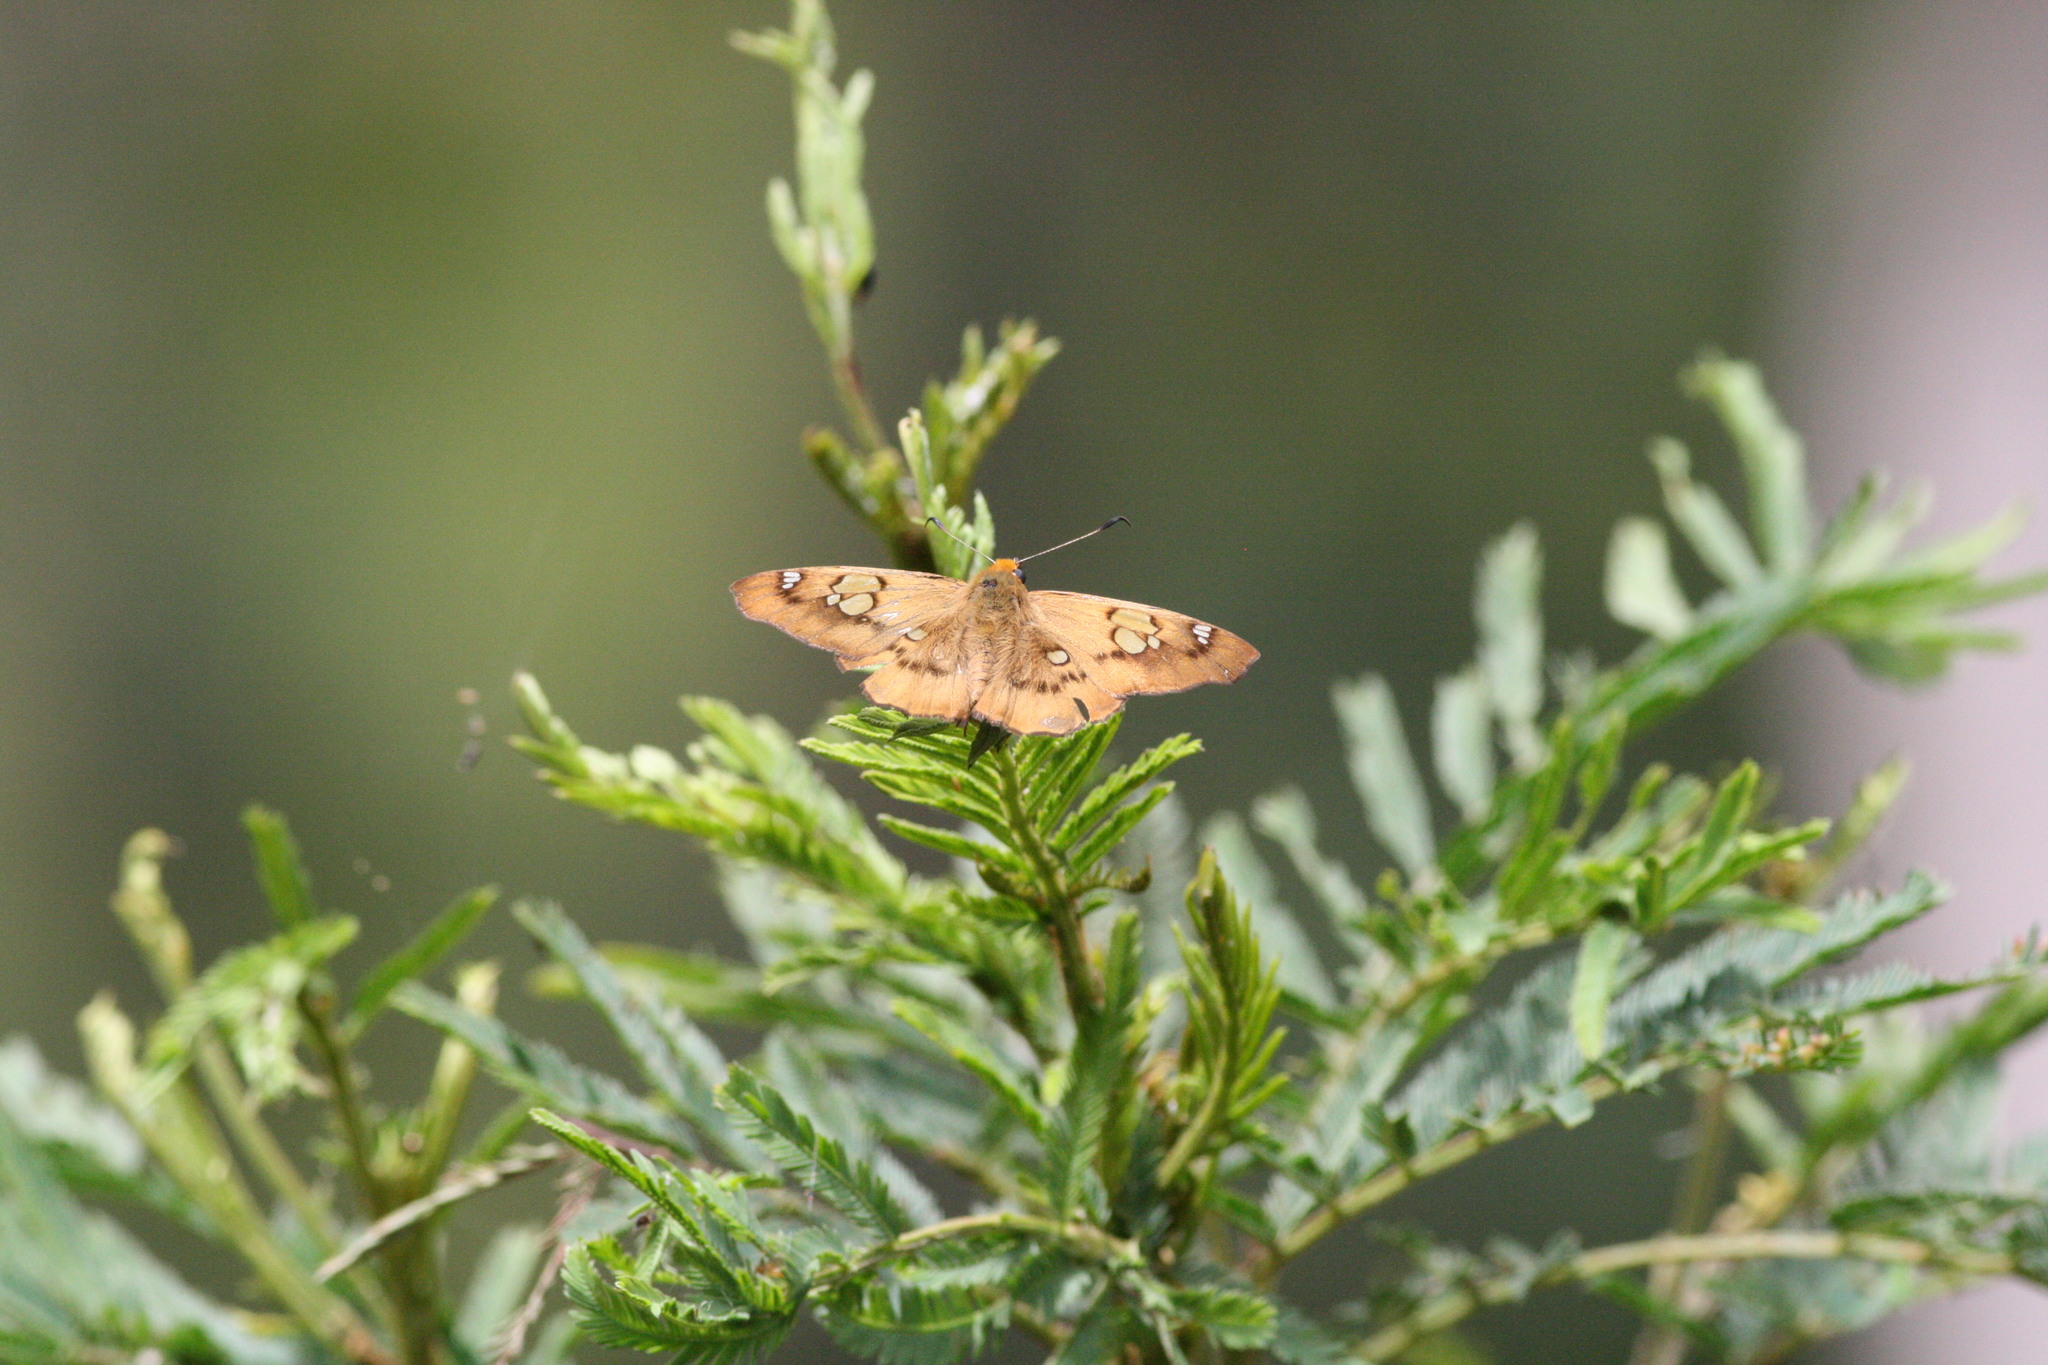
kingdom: Animalia
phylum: Arthropoda
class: Insecta
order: Lepidoptera
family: Hesperiidae
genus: Netrocoryne
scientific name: Netrocoryne repanda
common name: Bronze flat
